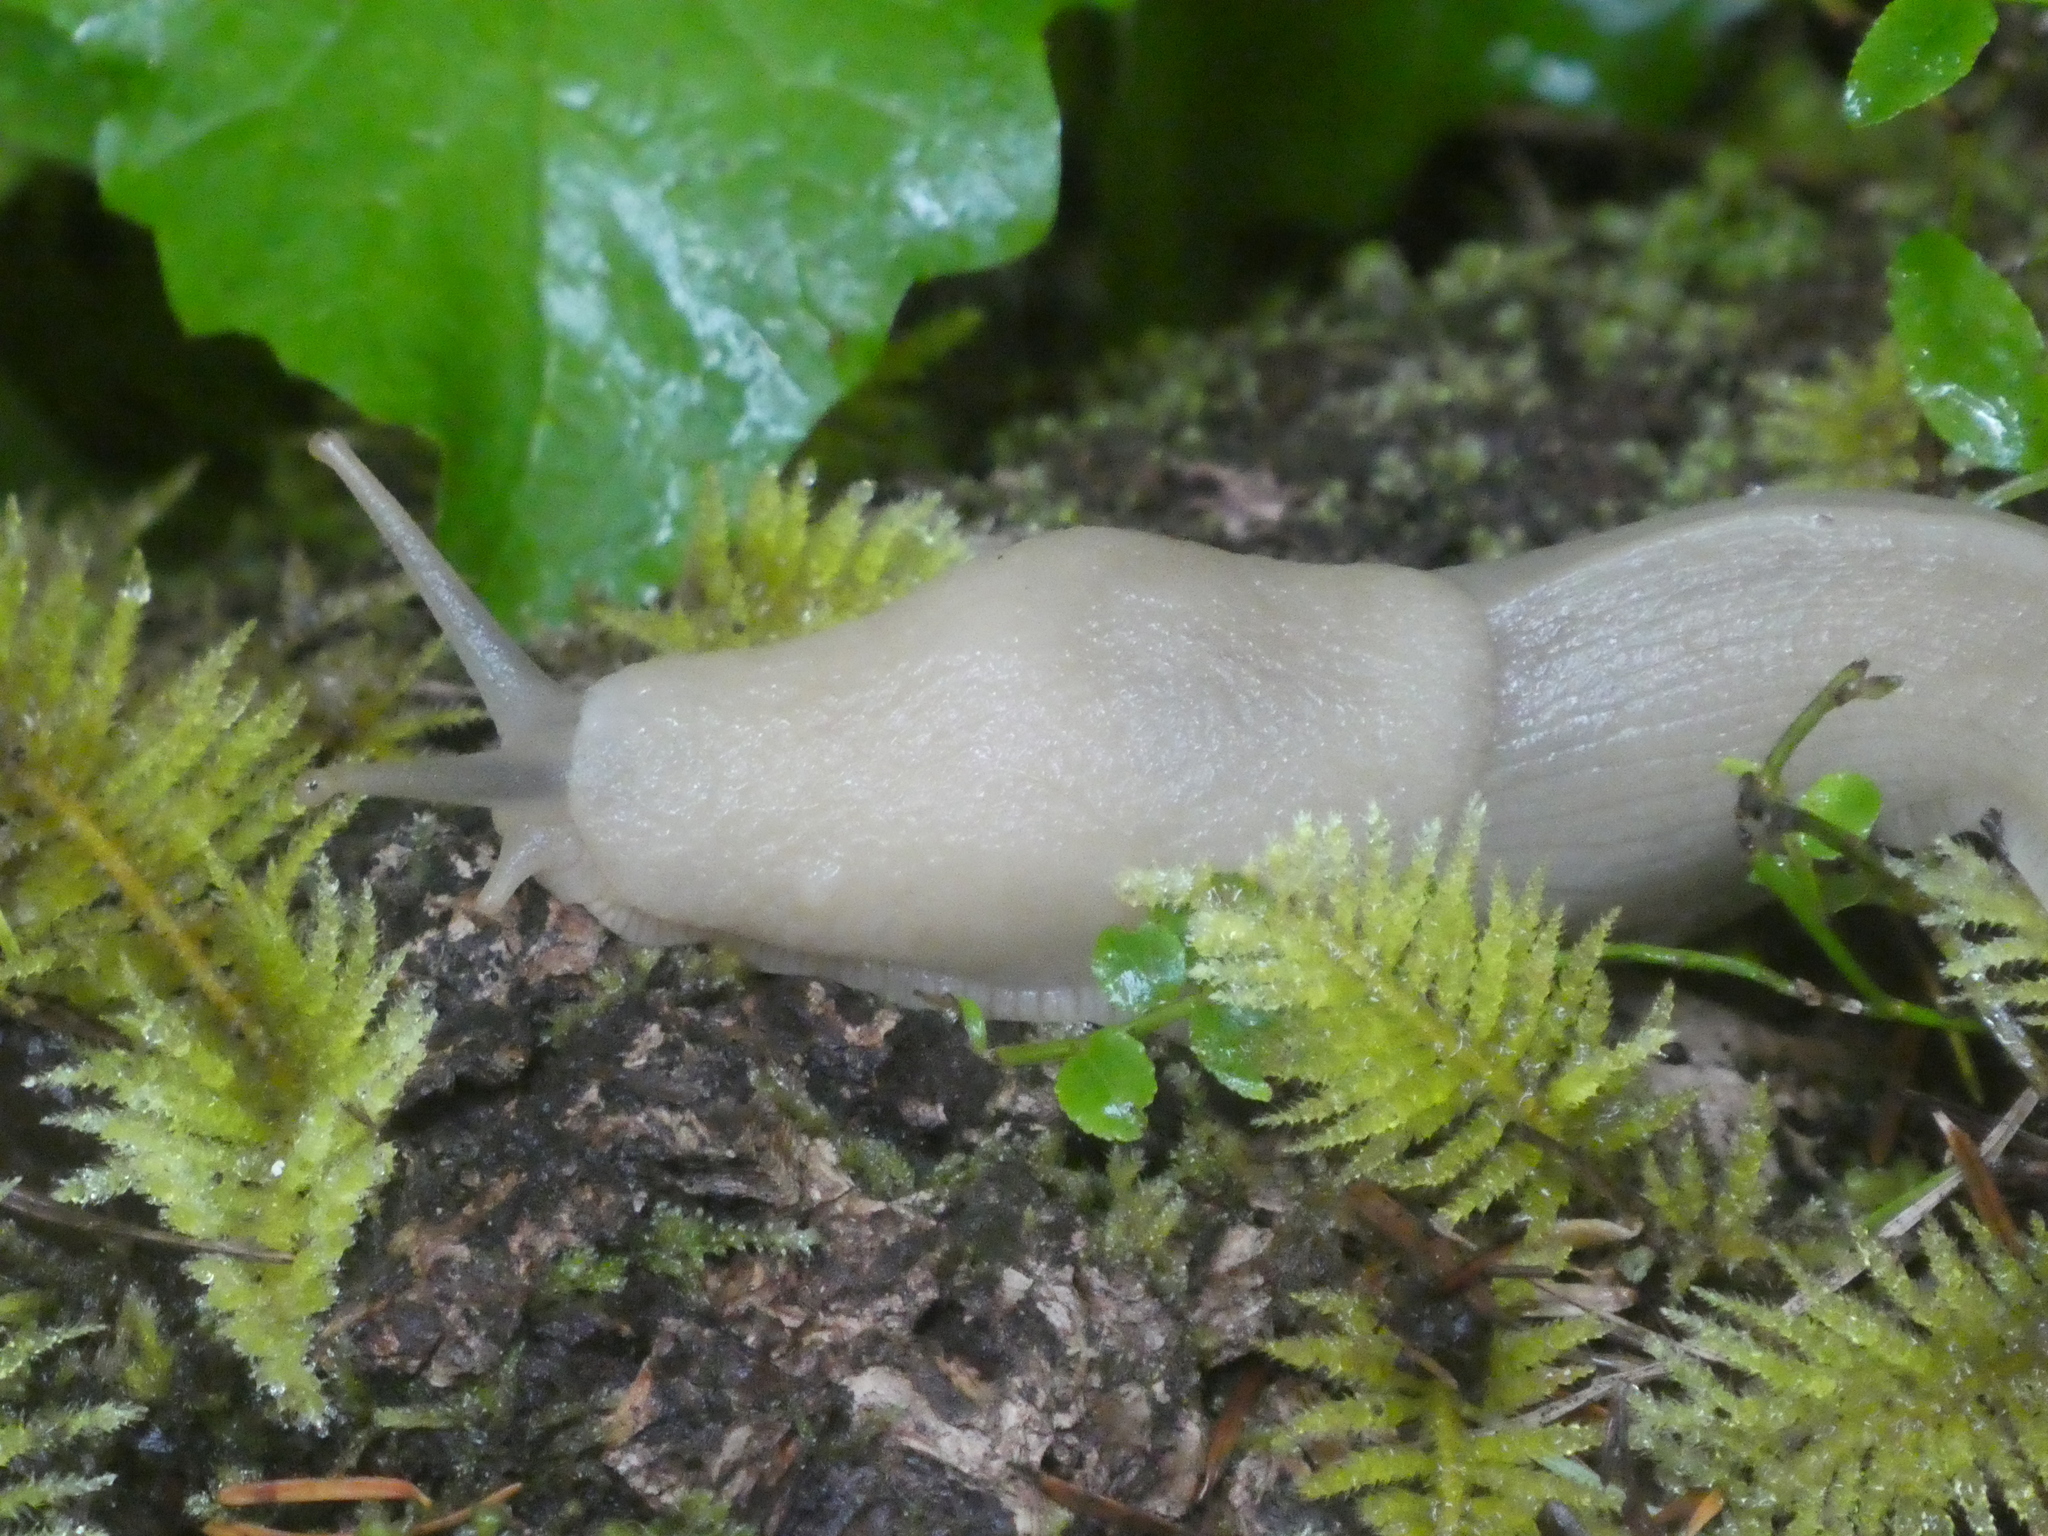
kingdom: Animalia
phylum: Mollusca
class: Gastropoda
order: Stylommatophora
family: Ariolimacidae
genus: Ariolimax
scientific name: Ariolimax columbianus
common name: Pacific banana slug
